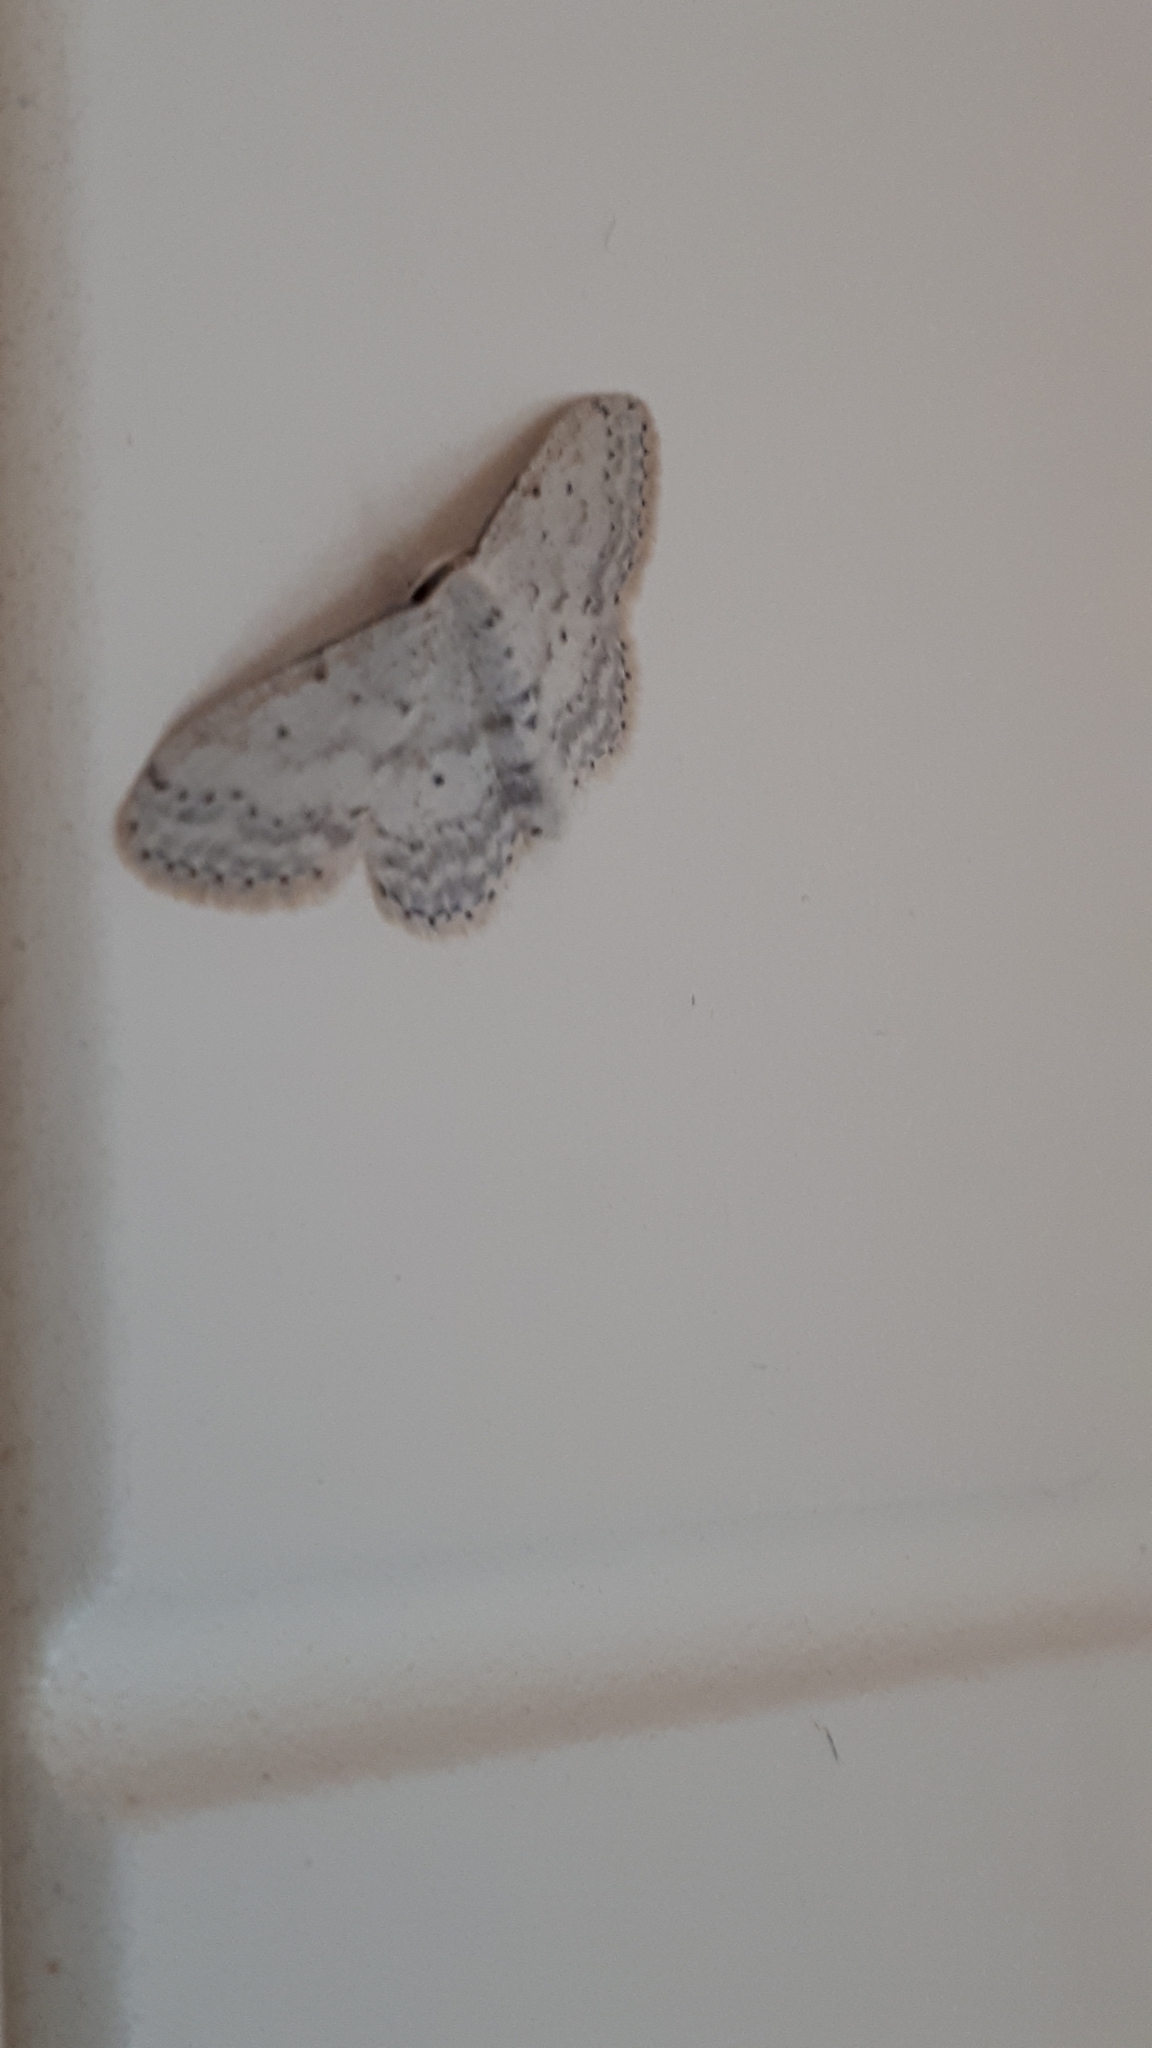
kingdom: Animalia
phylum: Arthropoda
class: Insecta
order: Lepidoptera
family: Geometridae
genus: Idaea
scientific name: Idaea seriata
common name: Small dusty wave
